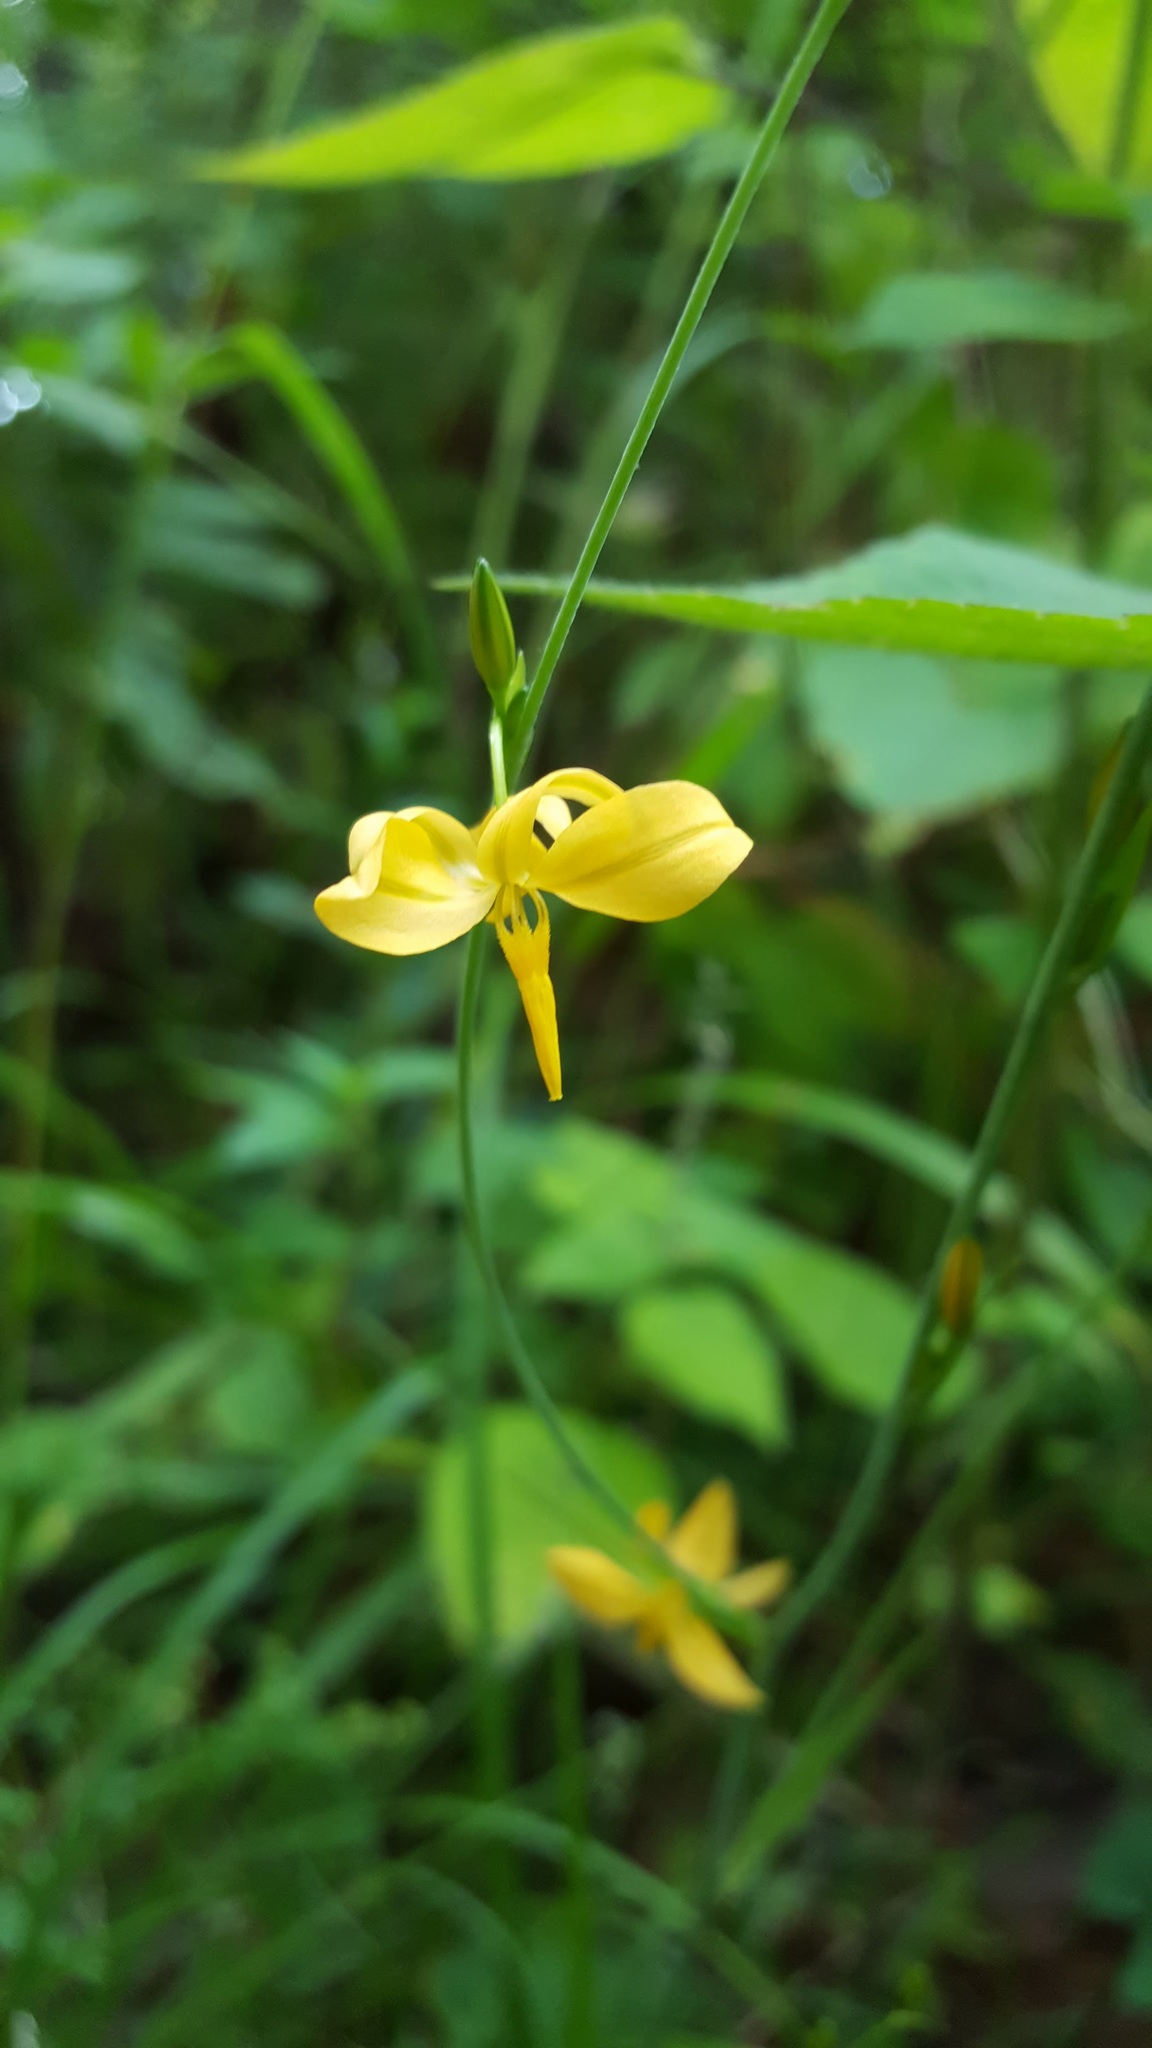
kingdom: Plantae
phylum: Tracheophyta
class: Liliopsida
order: Asparagales
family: Asparagaceae
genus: Echeandia
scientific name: Echeandia mexicana
